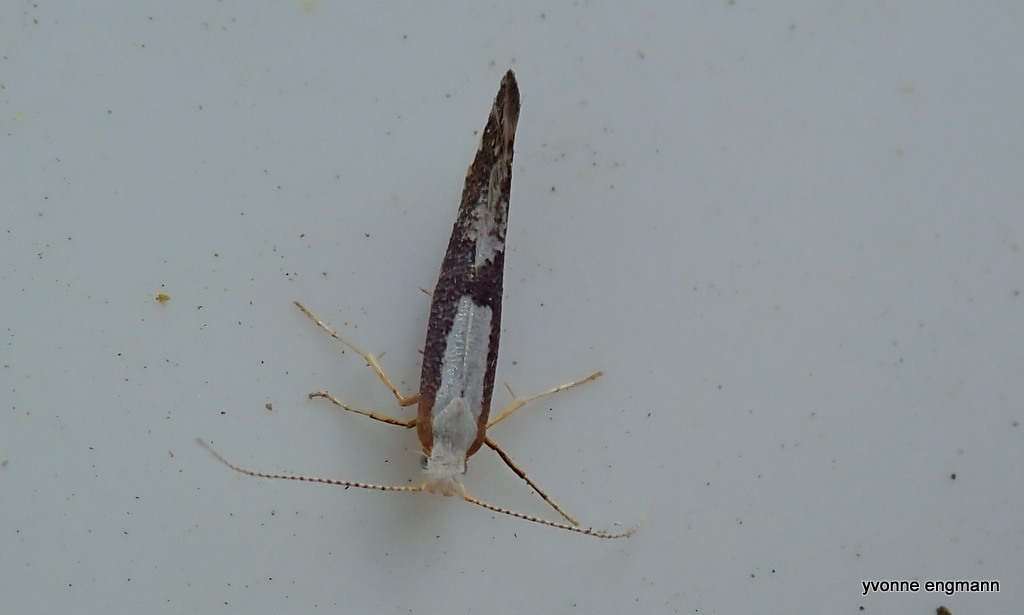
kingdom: Animalia
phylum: Arthropoda
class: Insecta
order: Lepidoptera
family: Argyresthiidae
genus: Argyresthia
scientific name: Argyresthia spinosella
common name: Blackthorn argent
